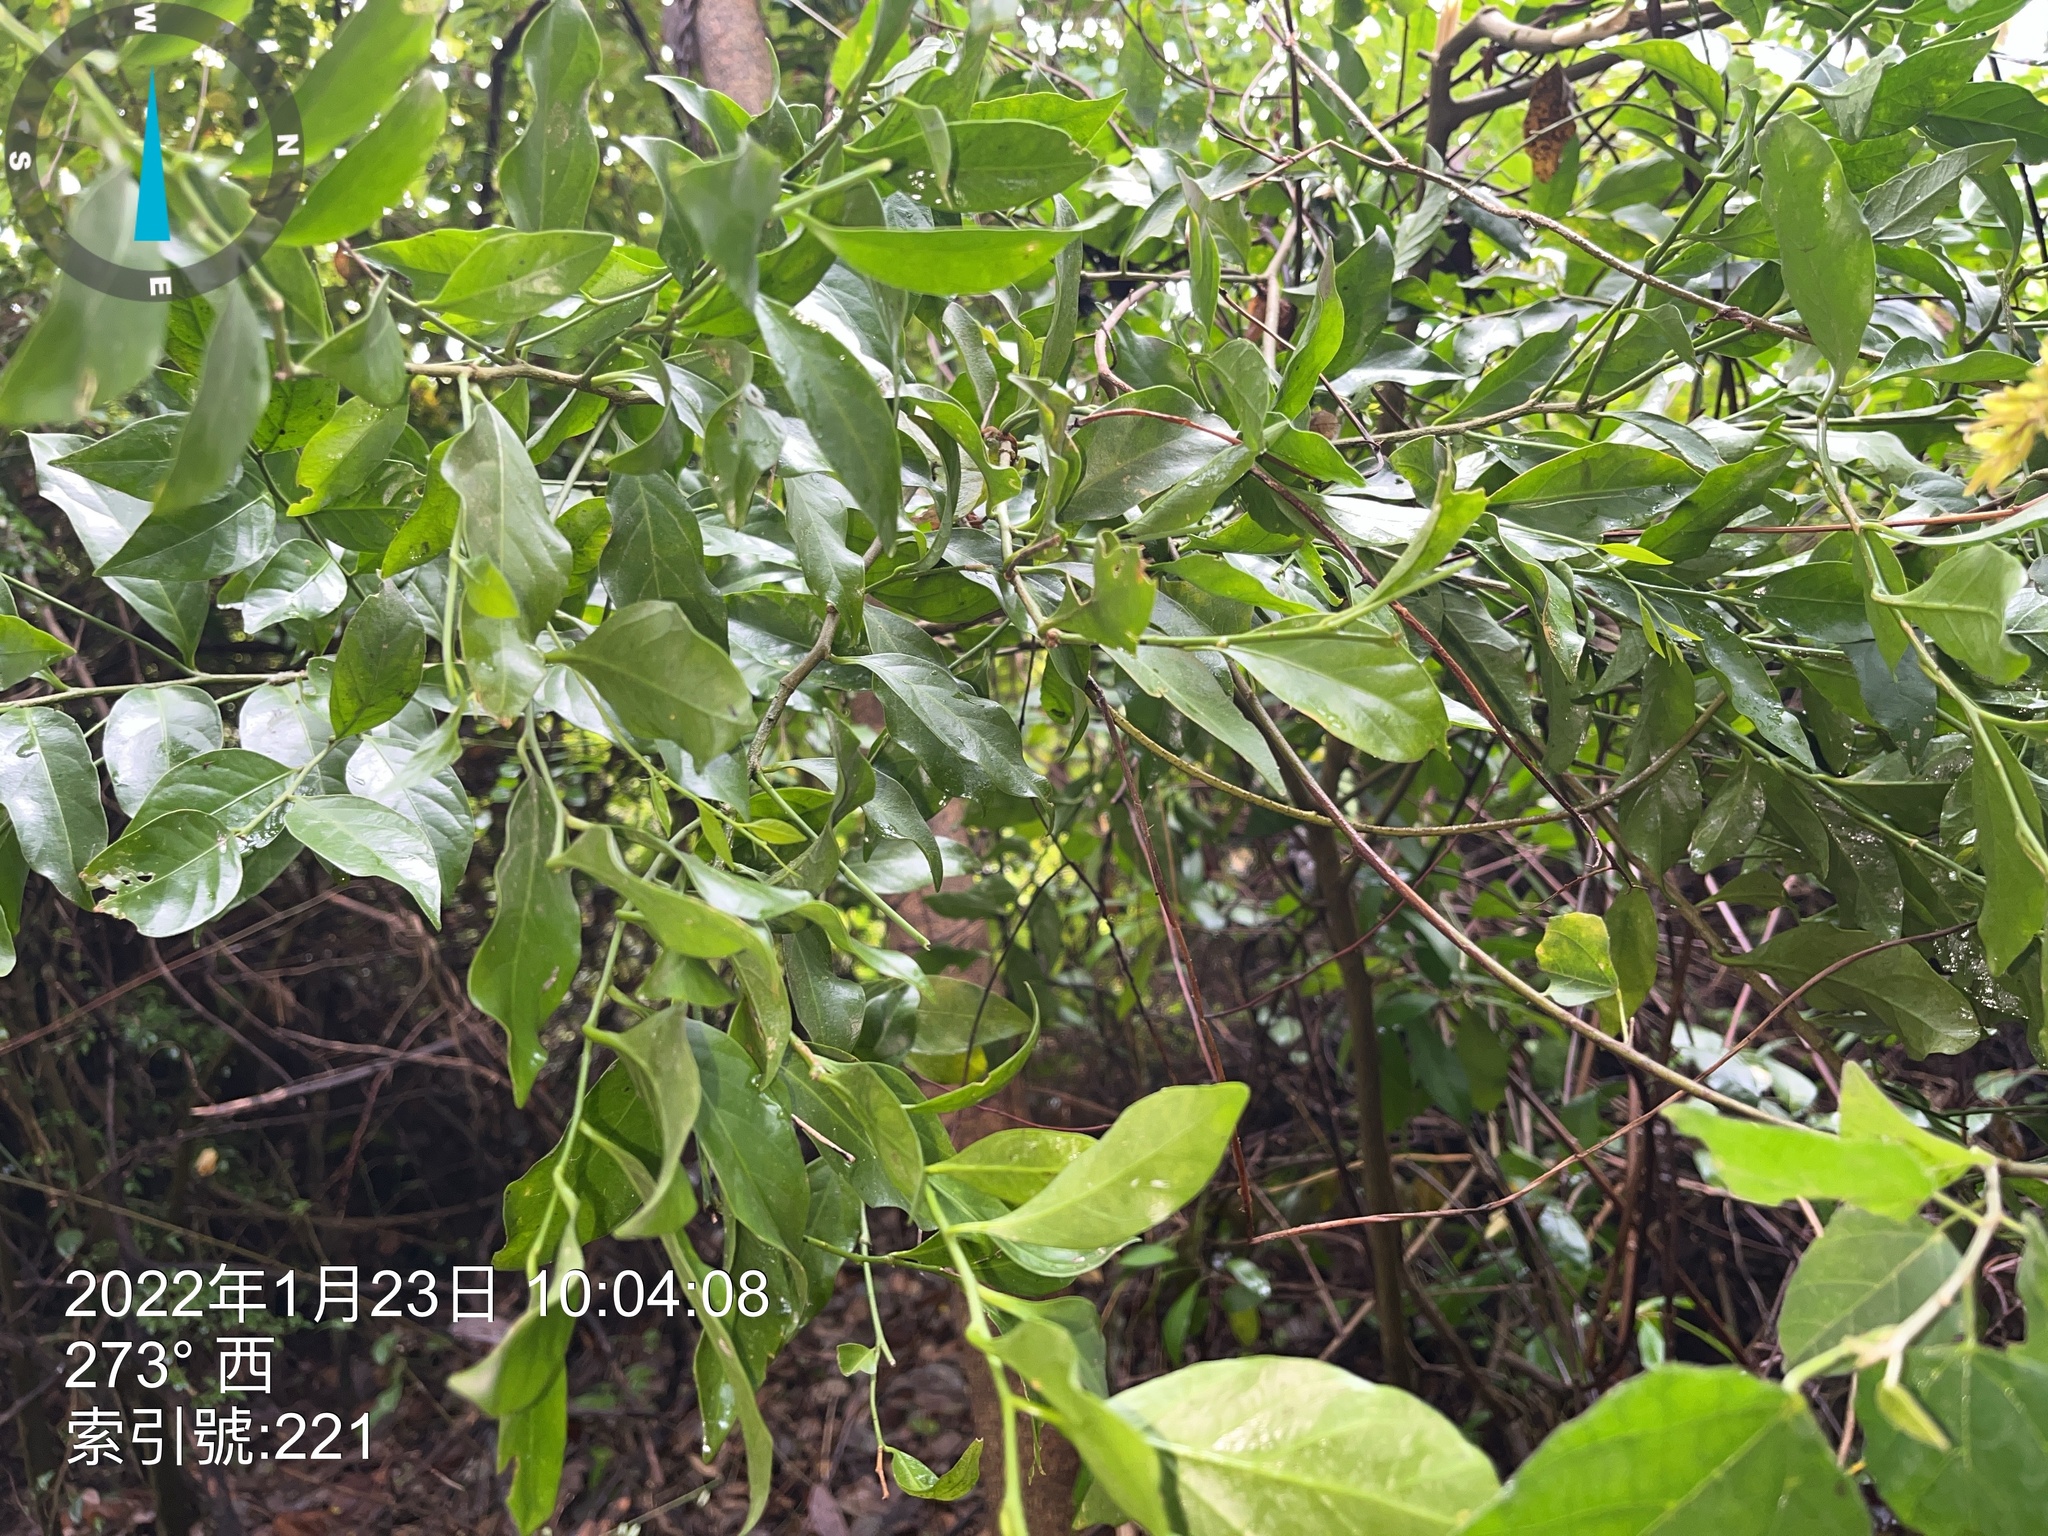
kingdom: Plantae
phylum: Tracheophyta
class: Magnoliopsida
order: Santalales
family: Opiliaceae
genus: Champereia
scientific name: Champereia manillana
